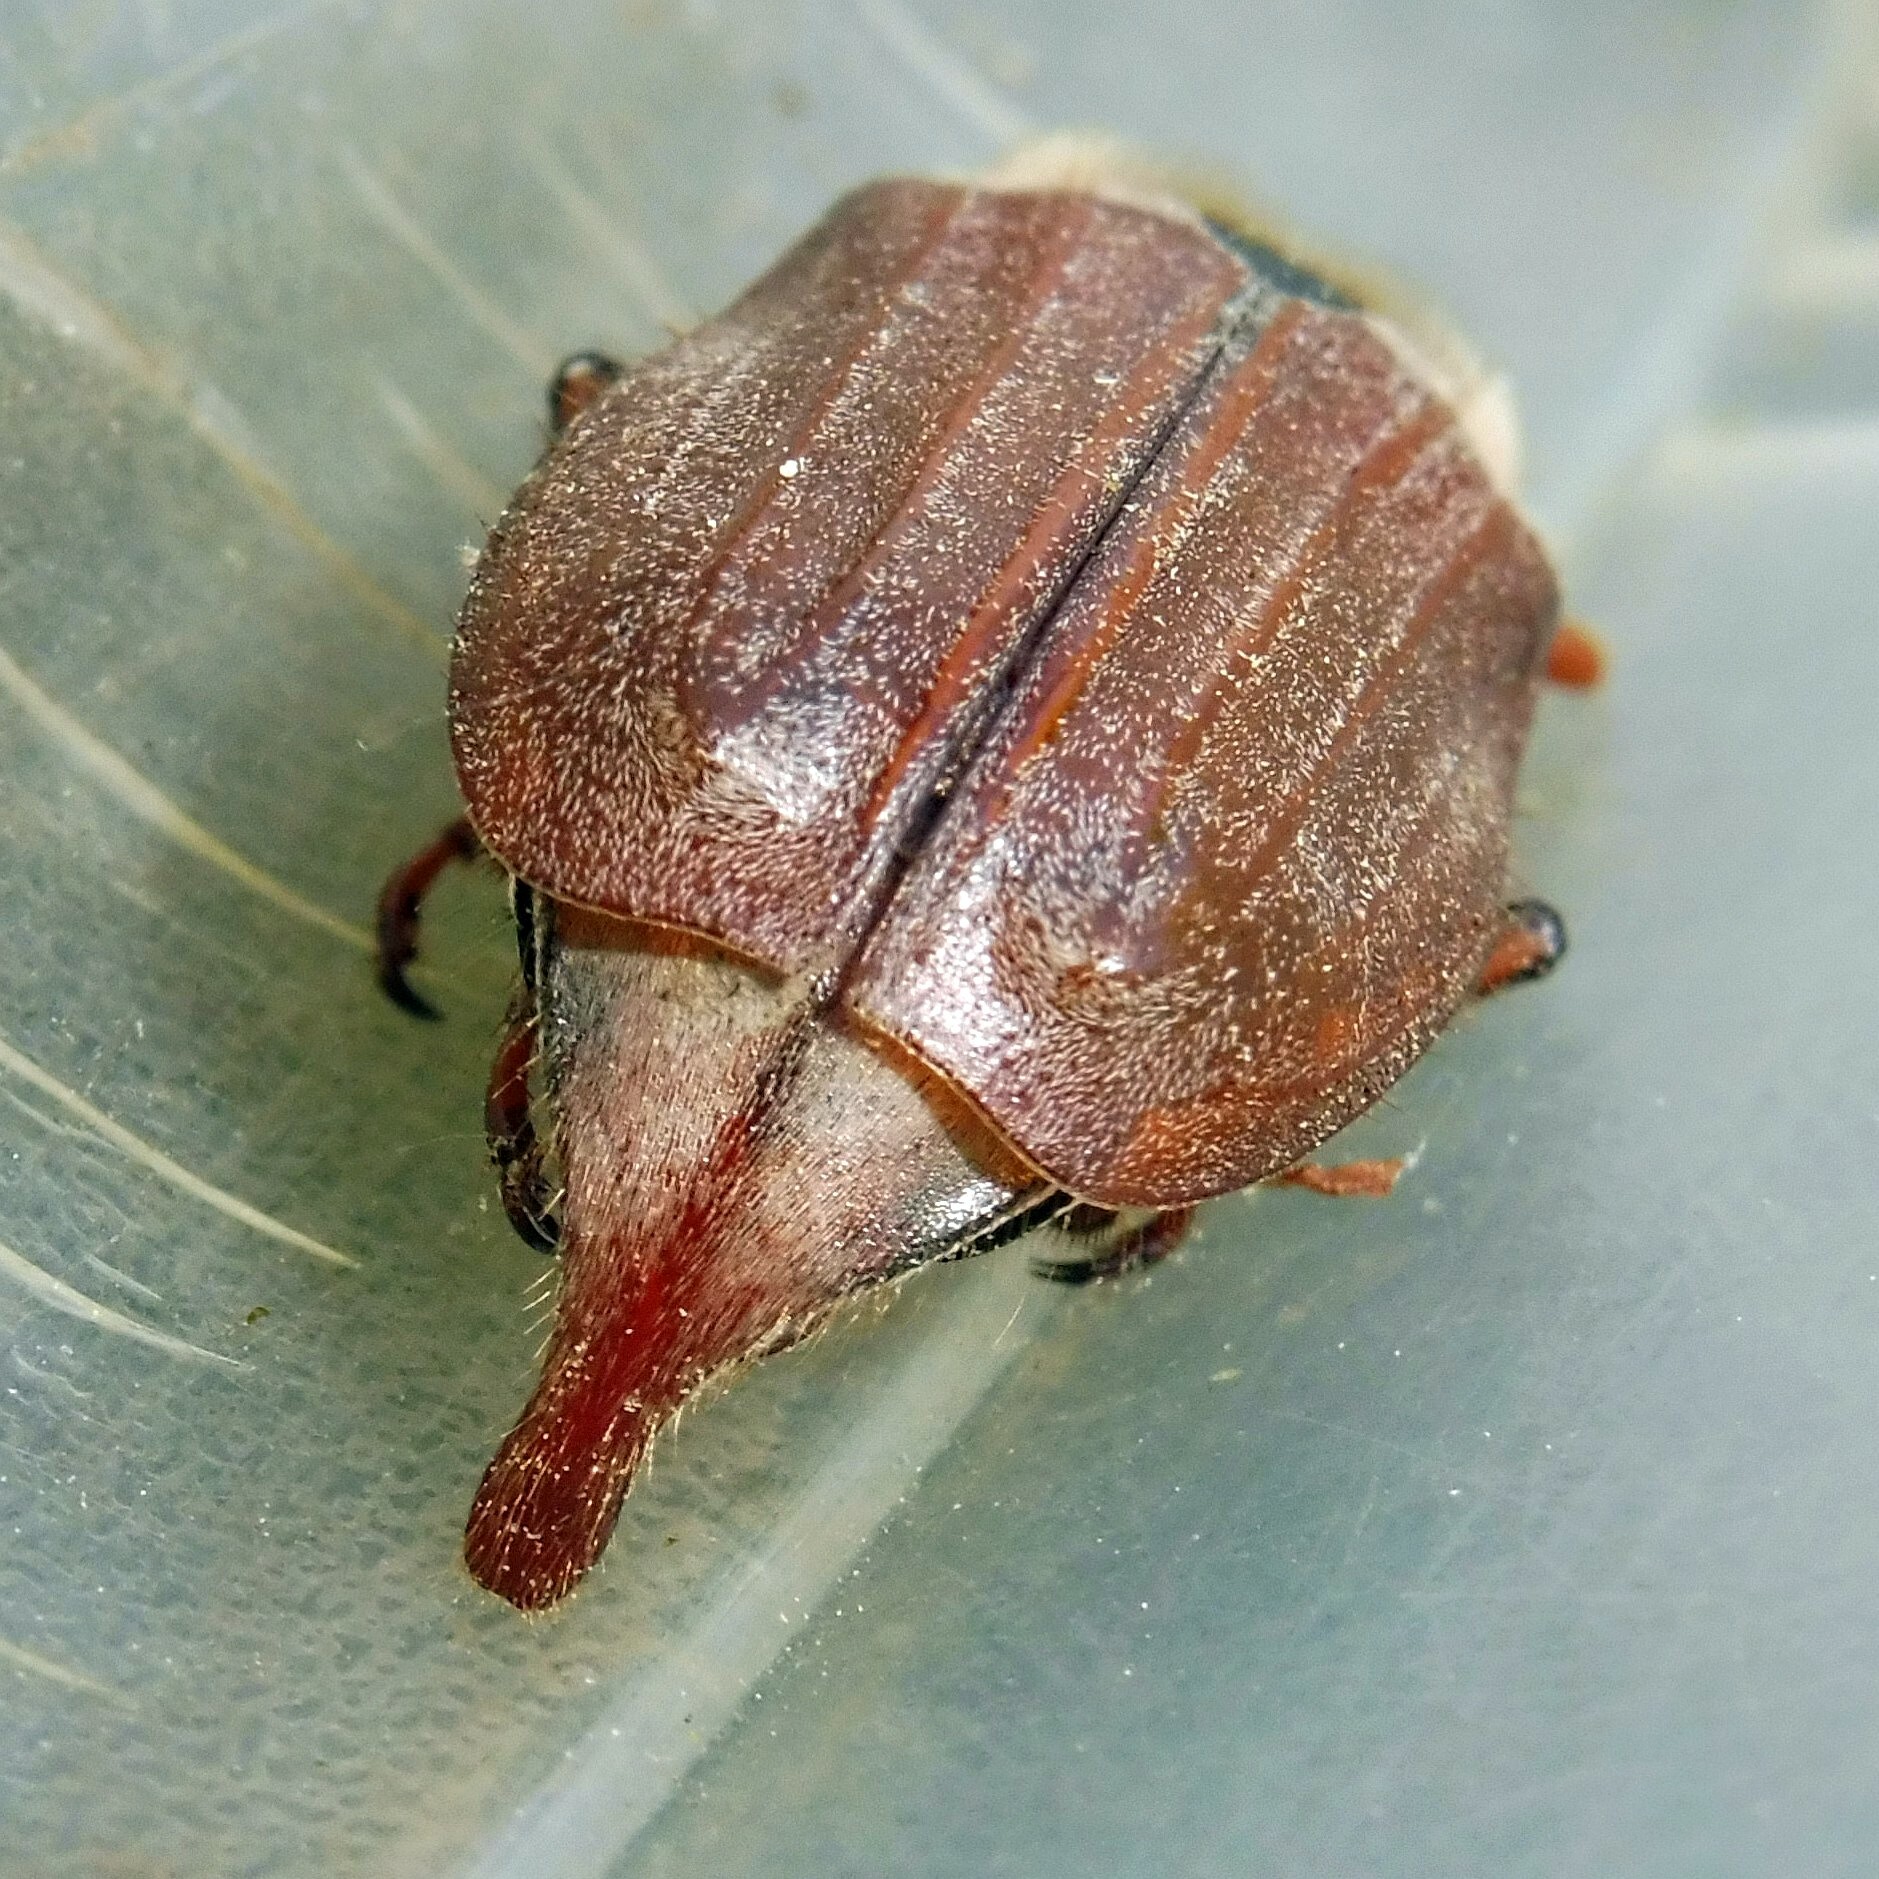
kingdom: Animalia
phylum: Arthropoda
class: Insecta
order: Coleoptera
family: Scarabaeidae
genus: Melolontha
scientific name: Melolontha melolontha
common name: Cockchafer maybeetle
